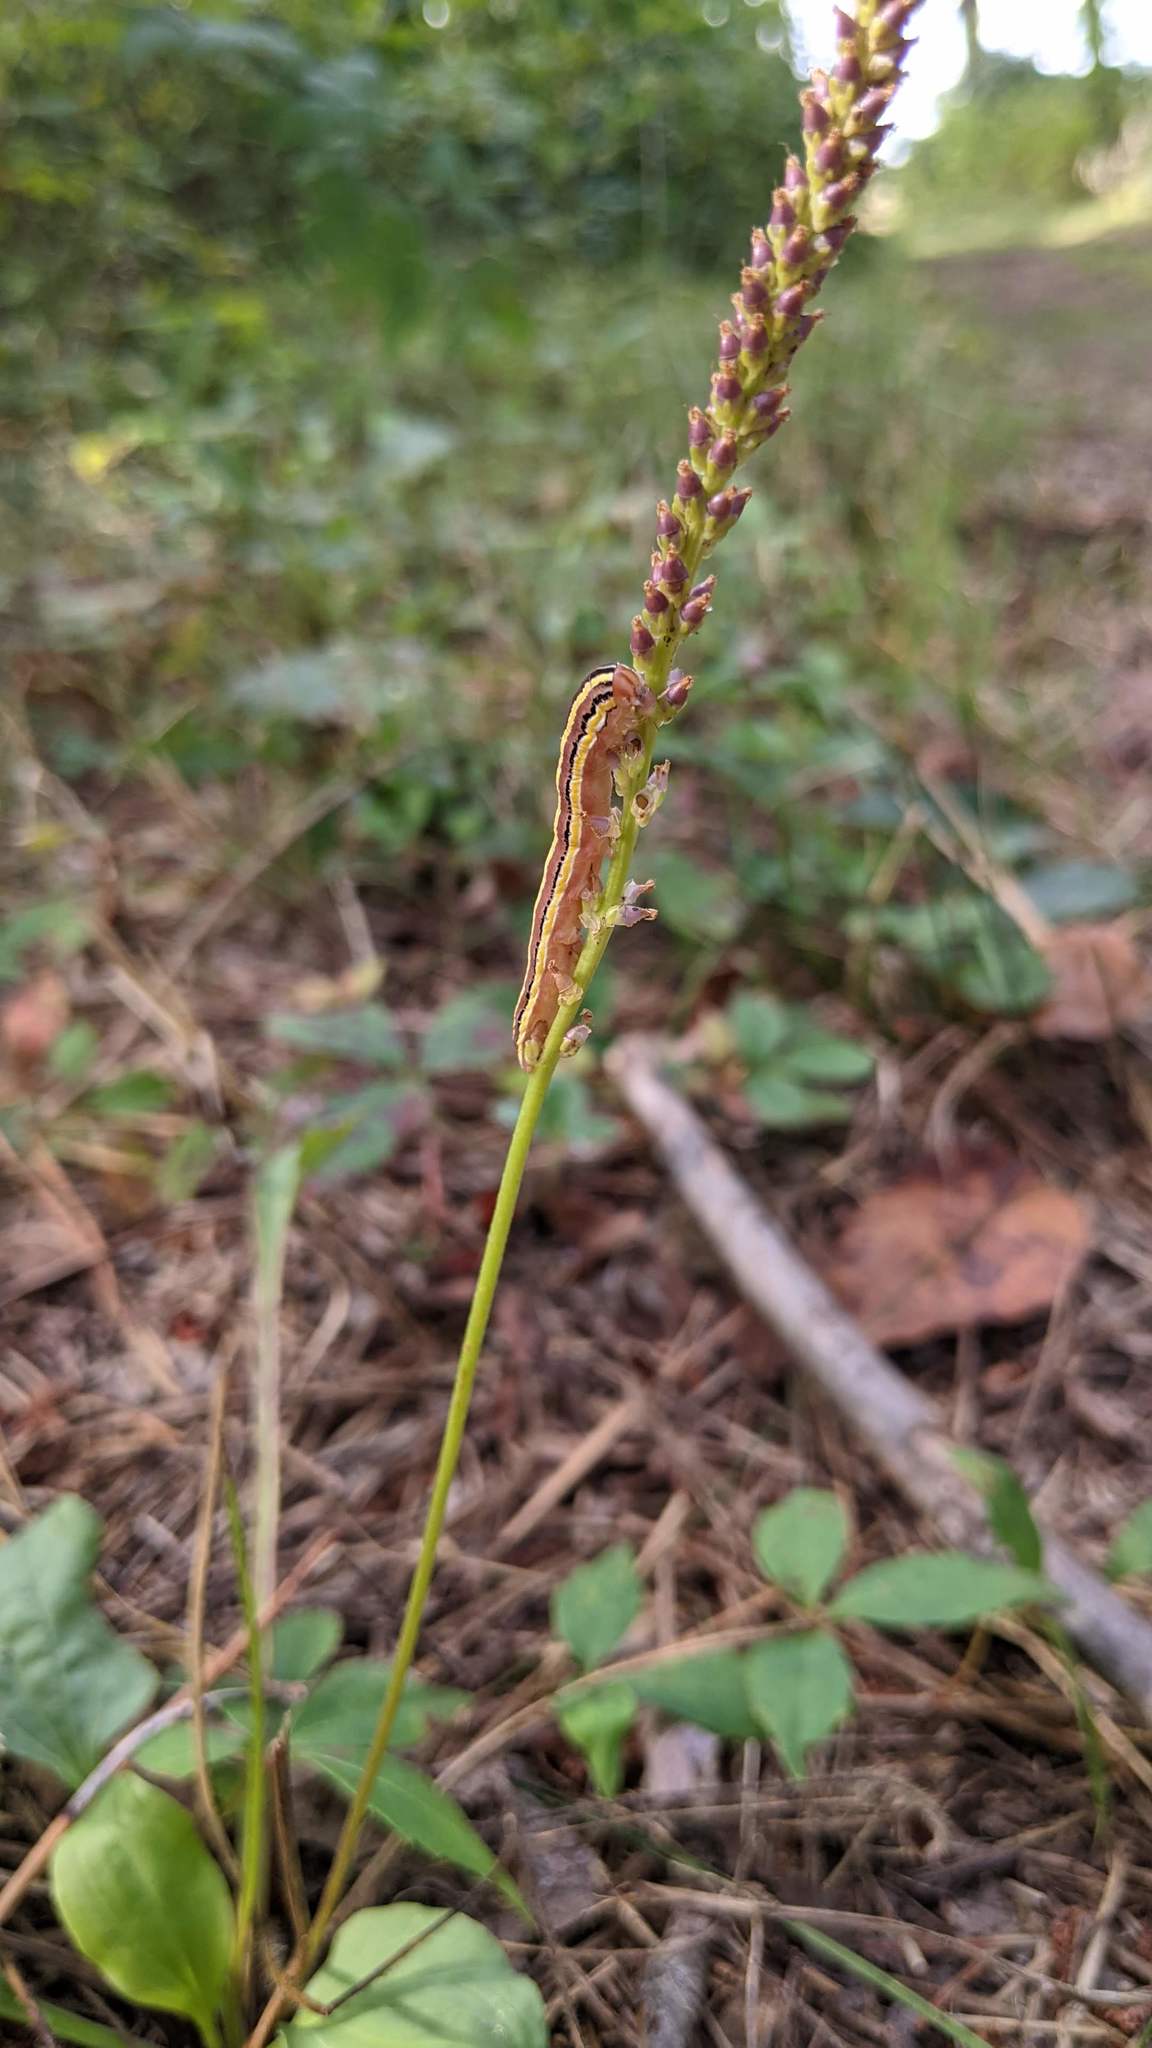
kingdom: Animalia
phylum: Arthropoda
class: Insecta
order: Lepidoptera
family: Noctuidae
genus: Trichordestra
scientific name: Trichordestra legitima
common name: Striped garden caterpillar
